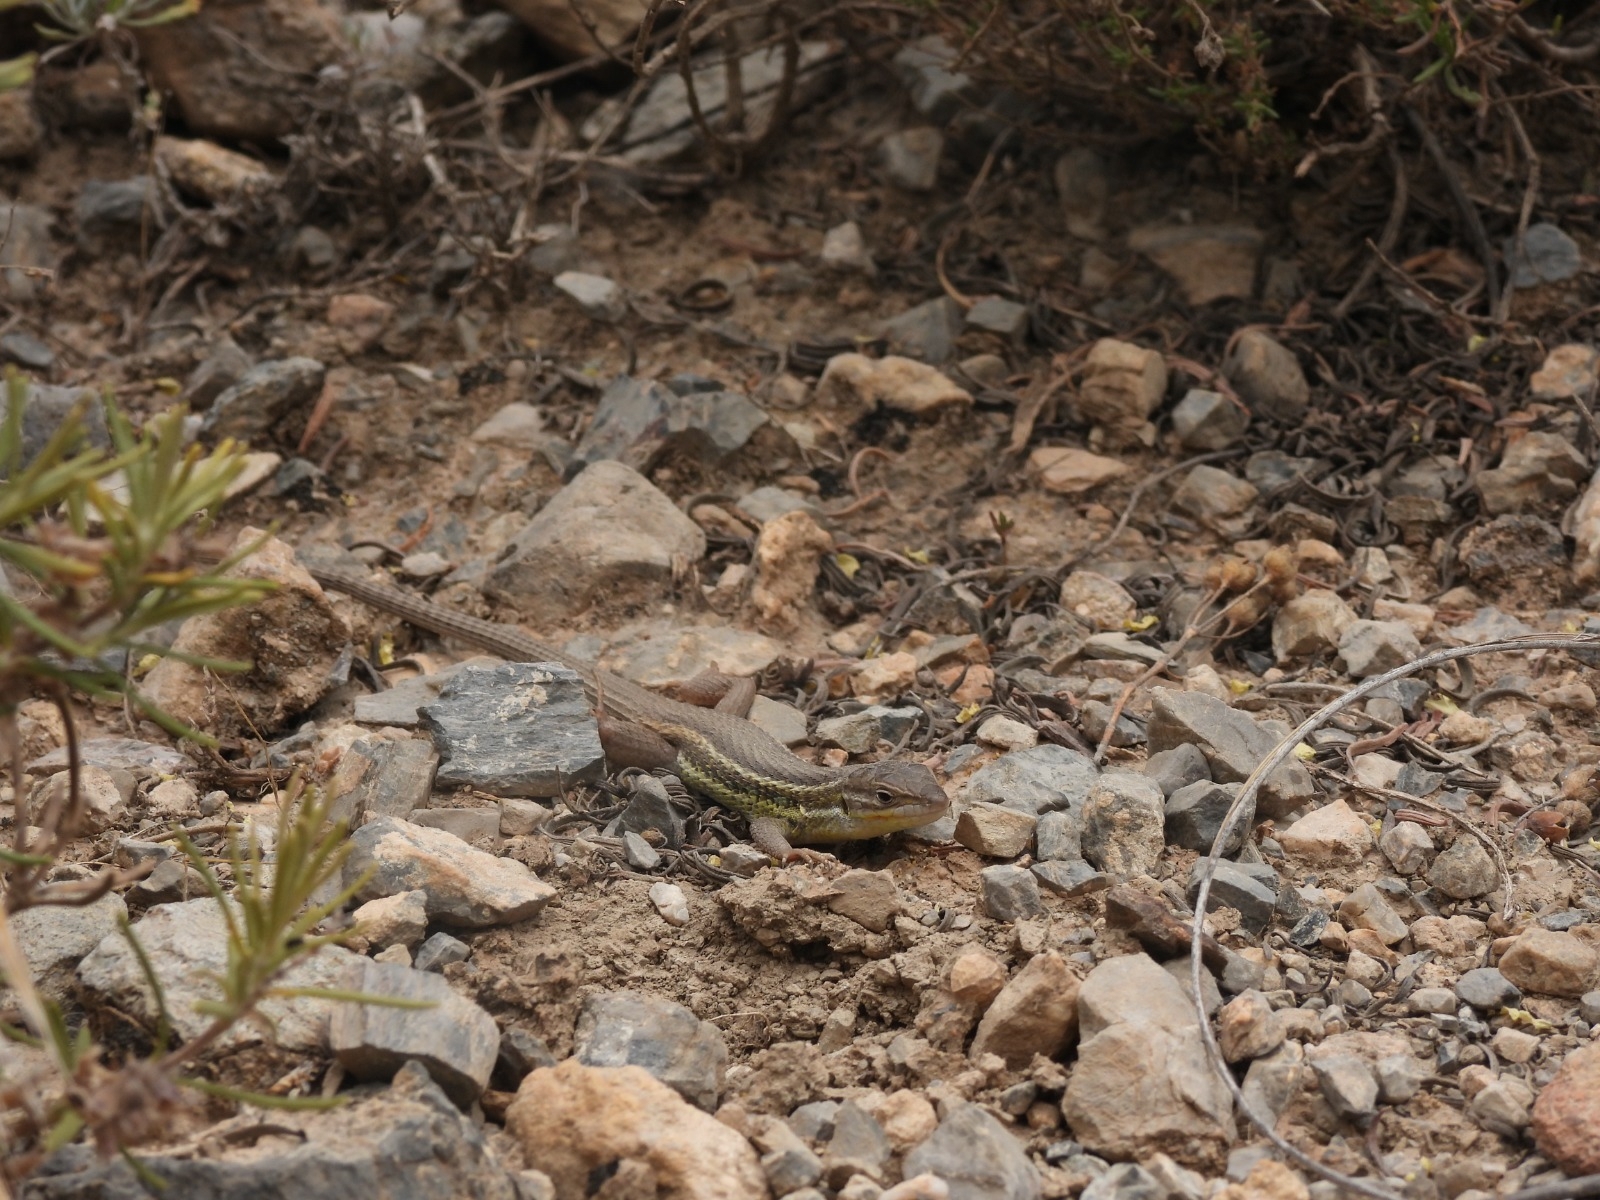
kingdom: Animalia
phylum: Chordata
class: Squamata
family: Lacertidae
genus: Psammodromus
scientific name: Psammodromus algirus
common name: Algerian psammodromus
